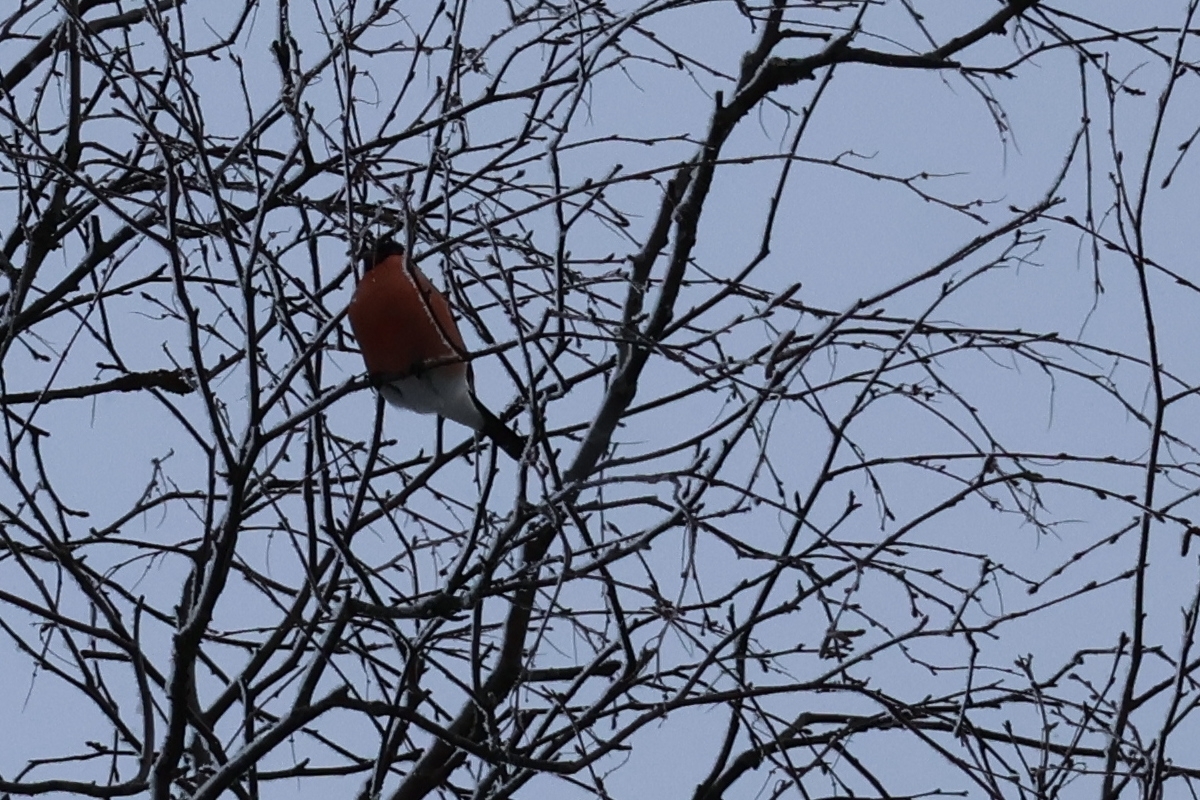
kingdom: Animalia
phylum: Chordata
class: Aves
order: Passeriformes
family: Fringillidae
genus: Pyrrhula
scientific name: Pyrrhula pyrrhula
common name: Eurasian bullfinch
